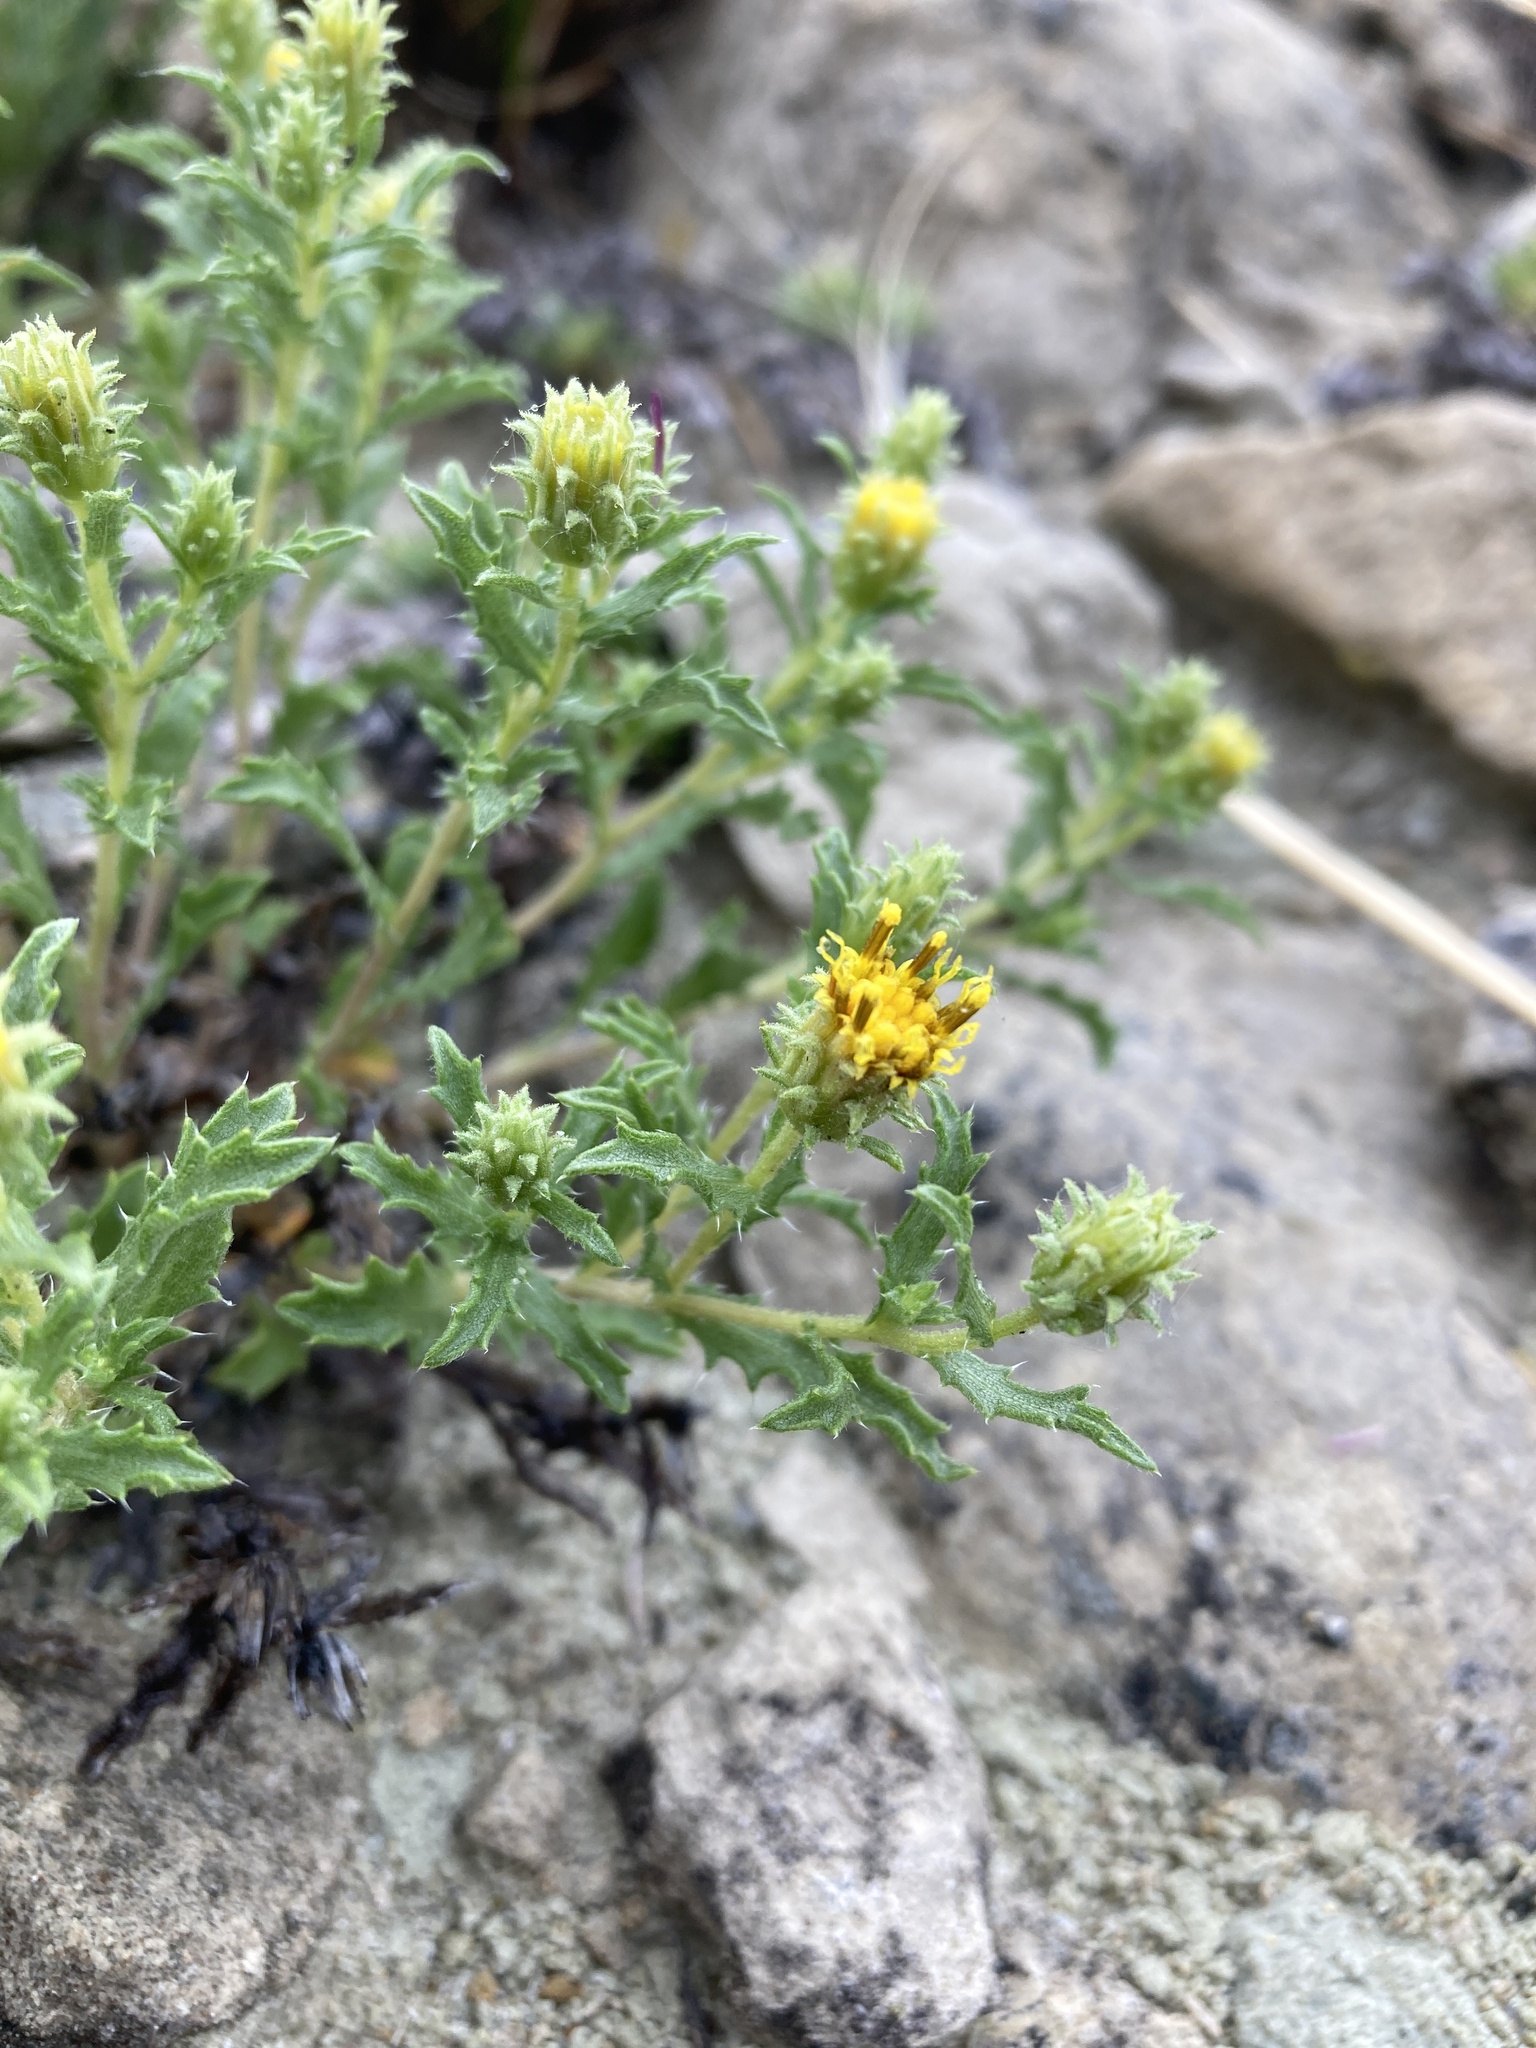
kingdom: Plantae
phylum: Tracheophyta
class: Magnoliopsida
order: Asterales
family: Asteraceae
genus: Xanthisma
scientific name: Xanthisma grindelioides
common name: Goldenweed
